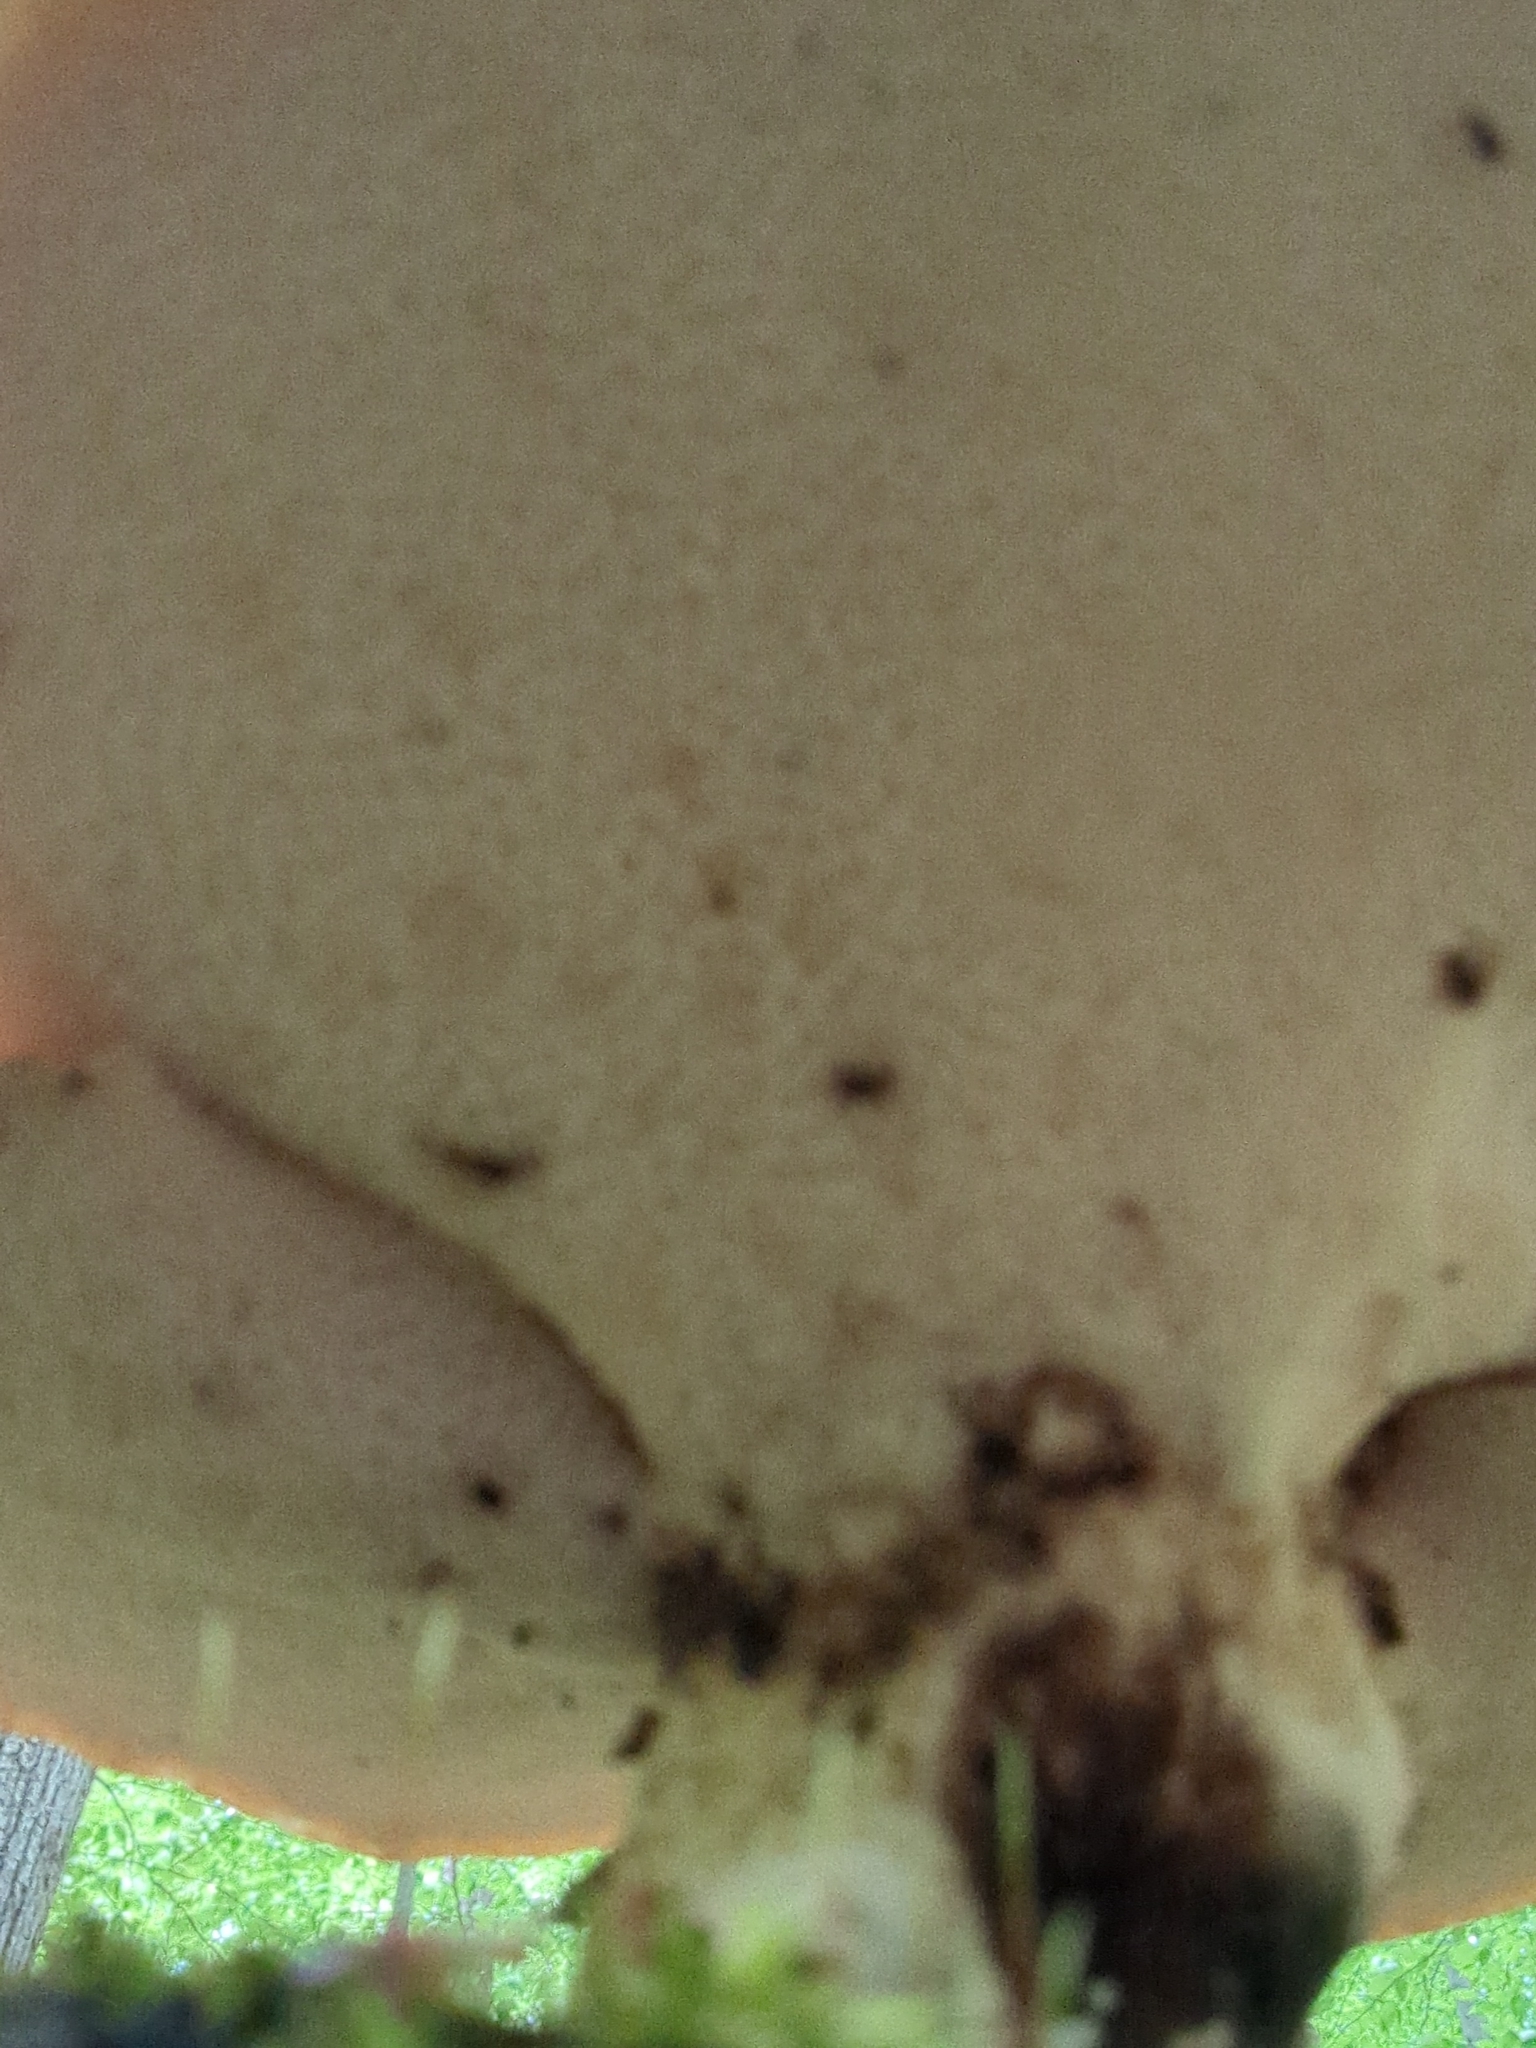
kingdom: Fungi
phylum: Basidiomycota
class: Agaricomycetes
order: Polyporales
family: Polyporaceae
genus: Cerioporus
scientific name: Cerioporus squamosus
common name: Dryad's saddle
